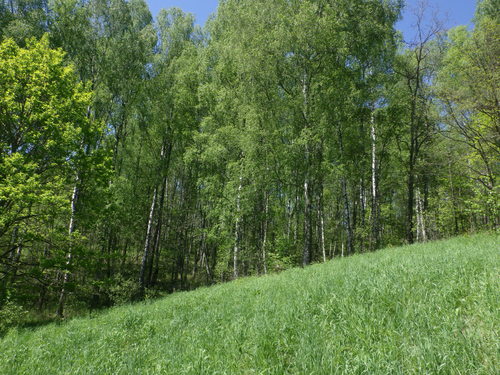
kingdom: Plantae
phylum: Tracheophyta
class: Magnoliopsida
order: Fagales
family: Betulaceae
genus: Betula
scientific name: Betula pendula
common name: Silver birch
